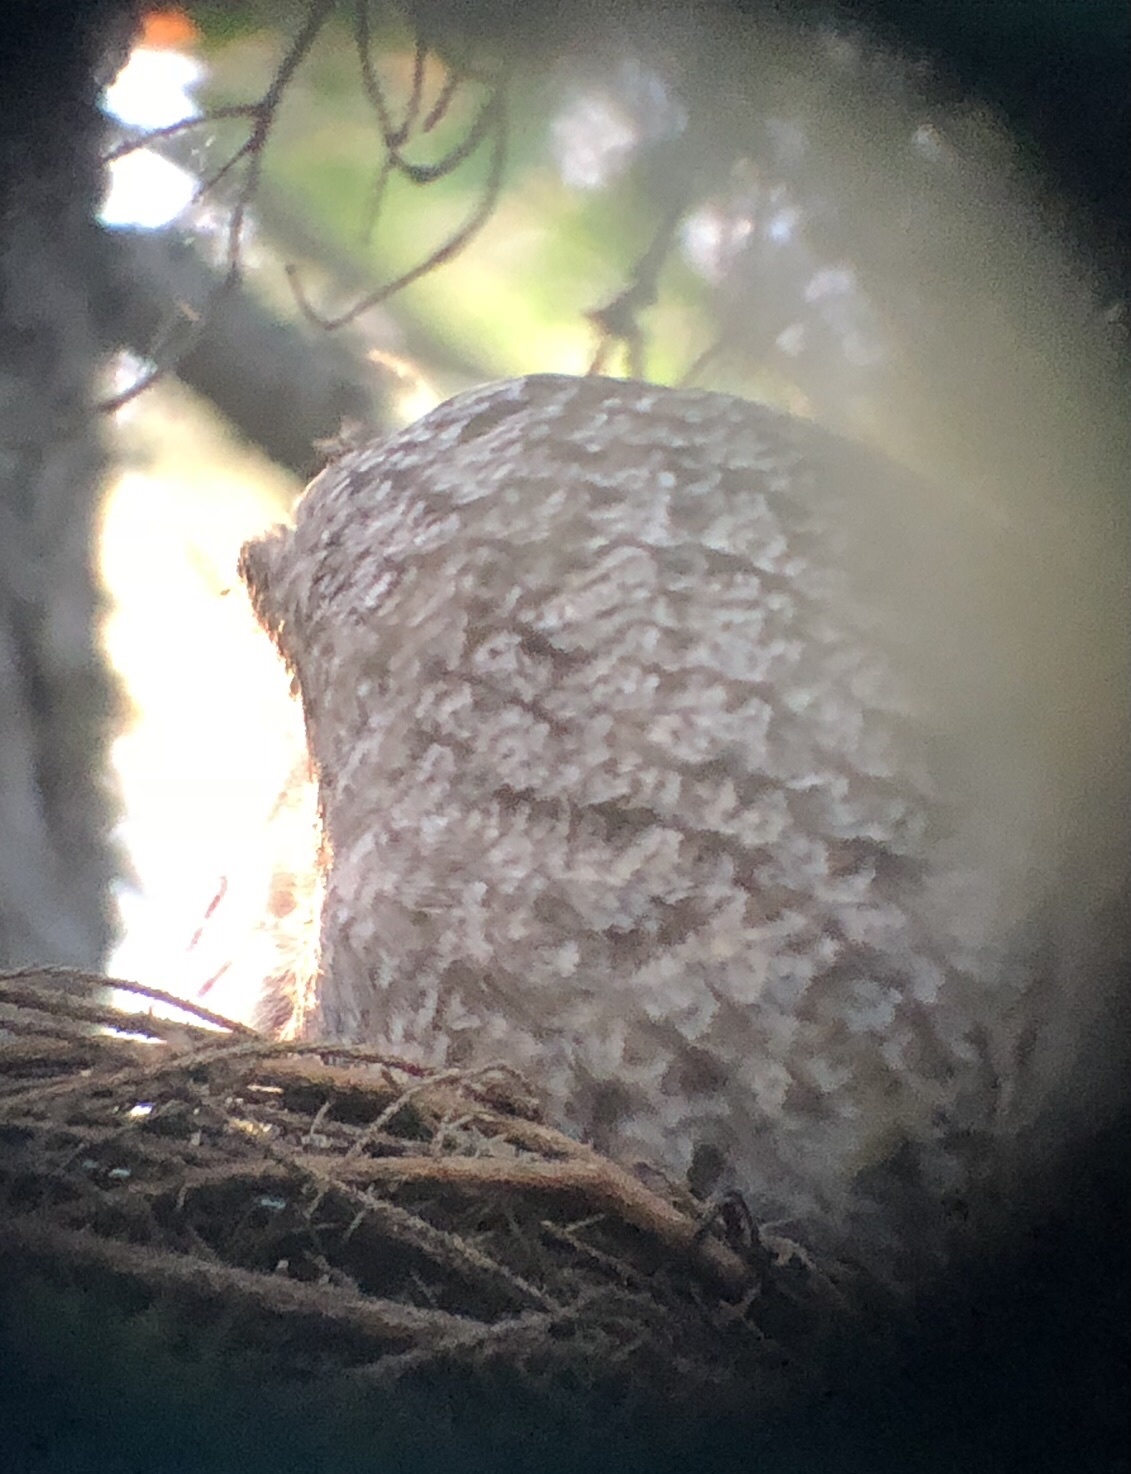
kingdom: Animalia
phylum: Chordata
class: Aves
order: Strigiformes
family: Strigidae
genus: Strix
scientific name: Strix nebulosa
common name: Great grey owl
